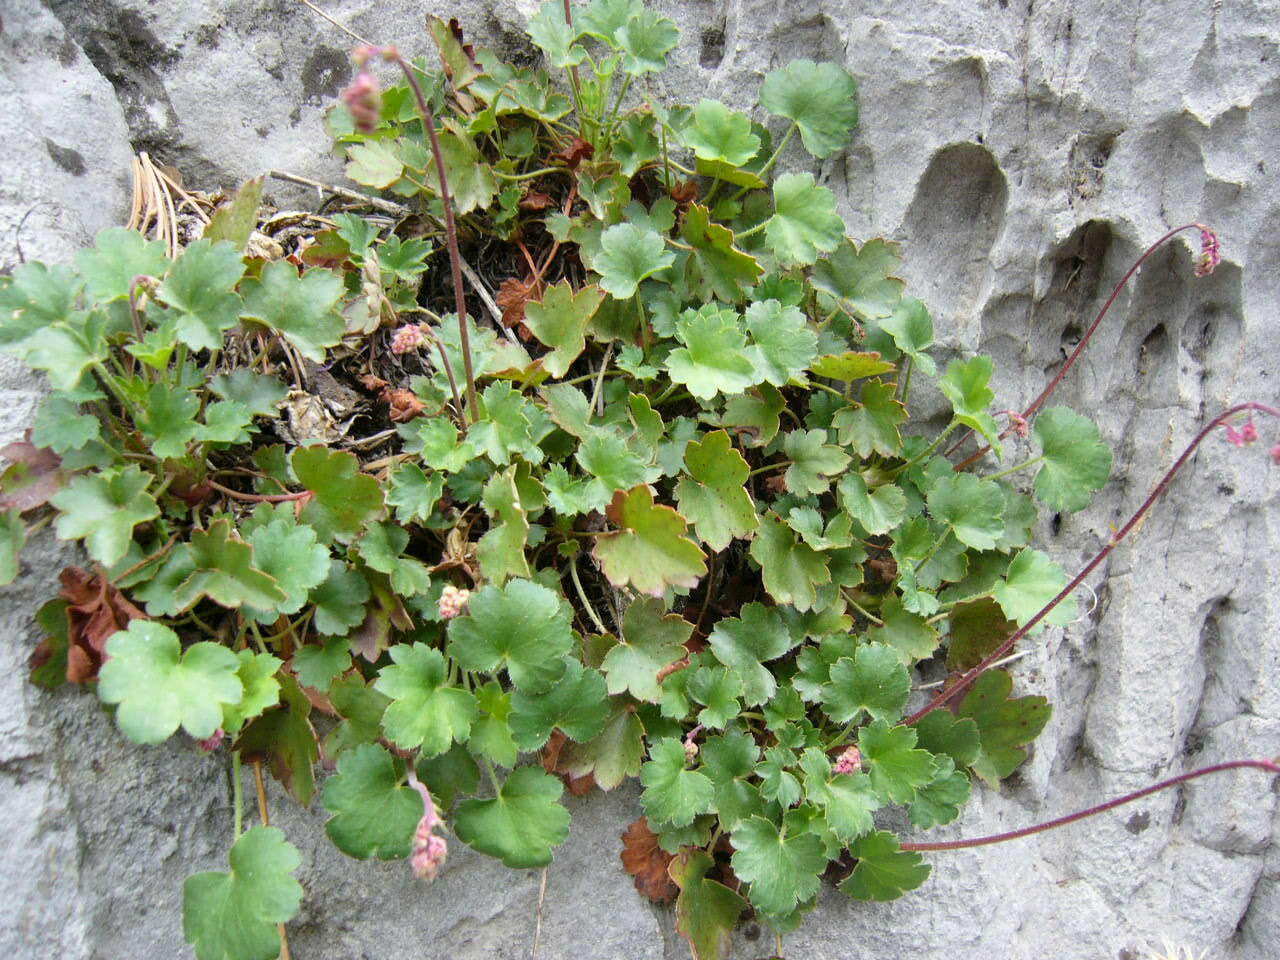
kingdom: Plantae
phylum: Tracheophyta
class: Magnoliopsida
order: Saxifragales
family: Saxifragaceae
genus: Heuchera
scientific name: Heuchera rubescens
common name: Jack-o'the-rocks
